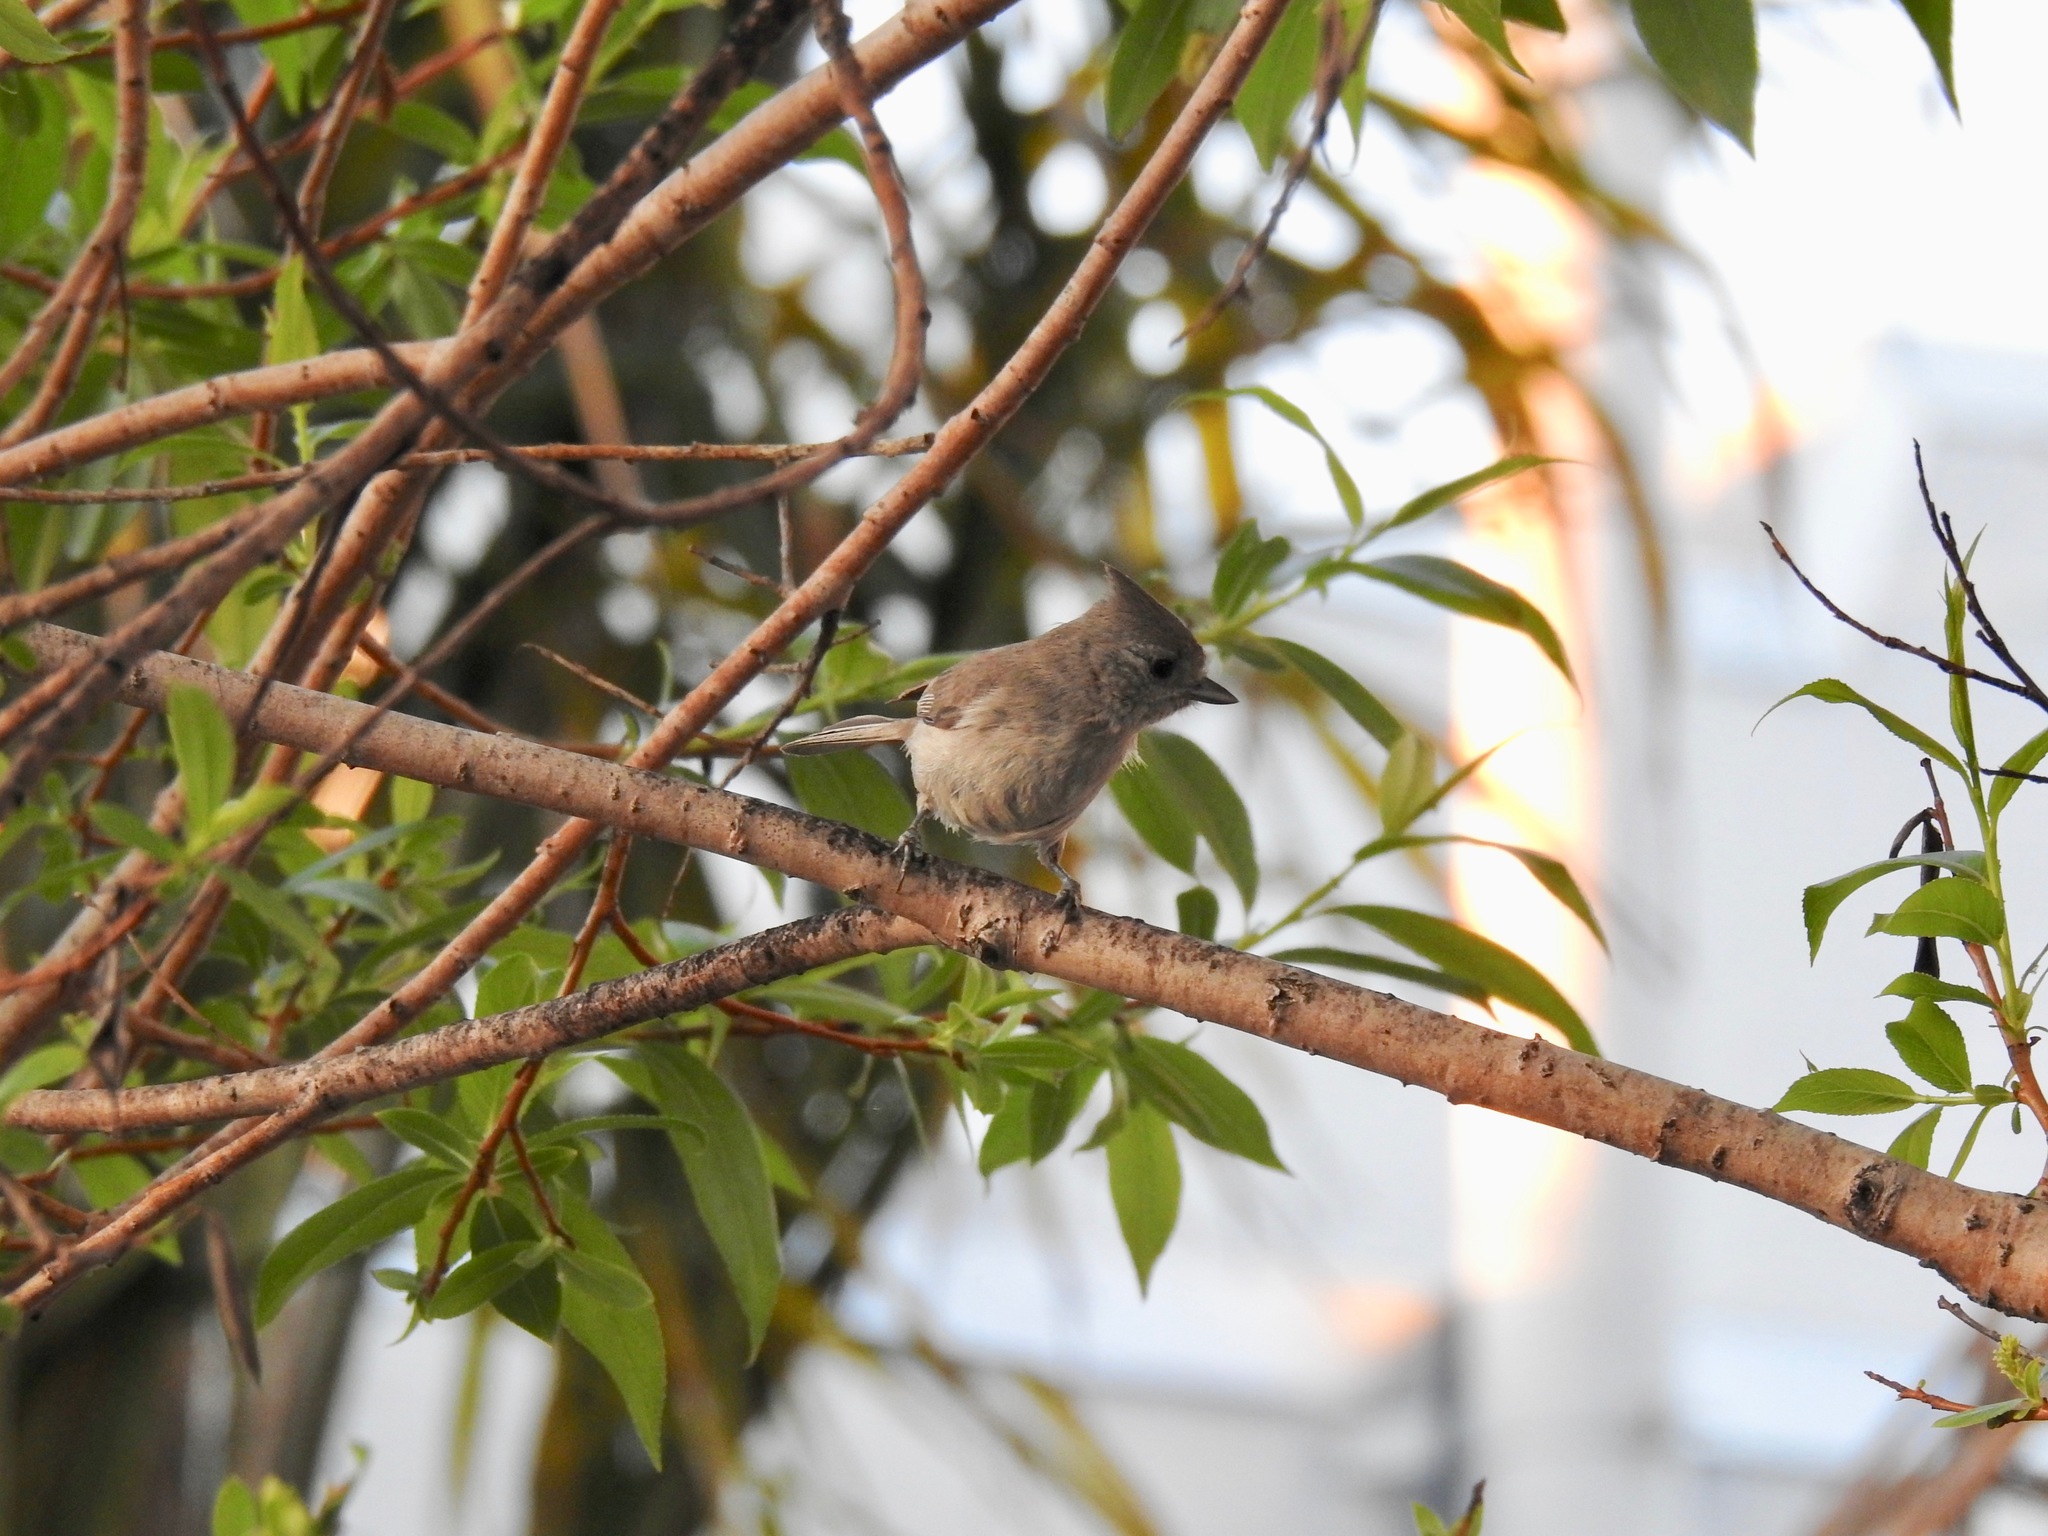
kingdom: Animalia
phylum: Chordata
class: Aves
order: Passeriformes
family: Paridae
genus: Baeolophus
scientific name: Baeolophus inornatus
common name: Oak titmouse
